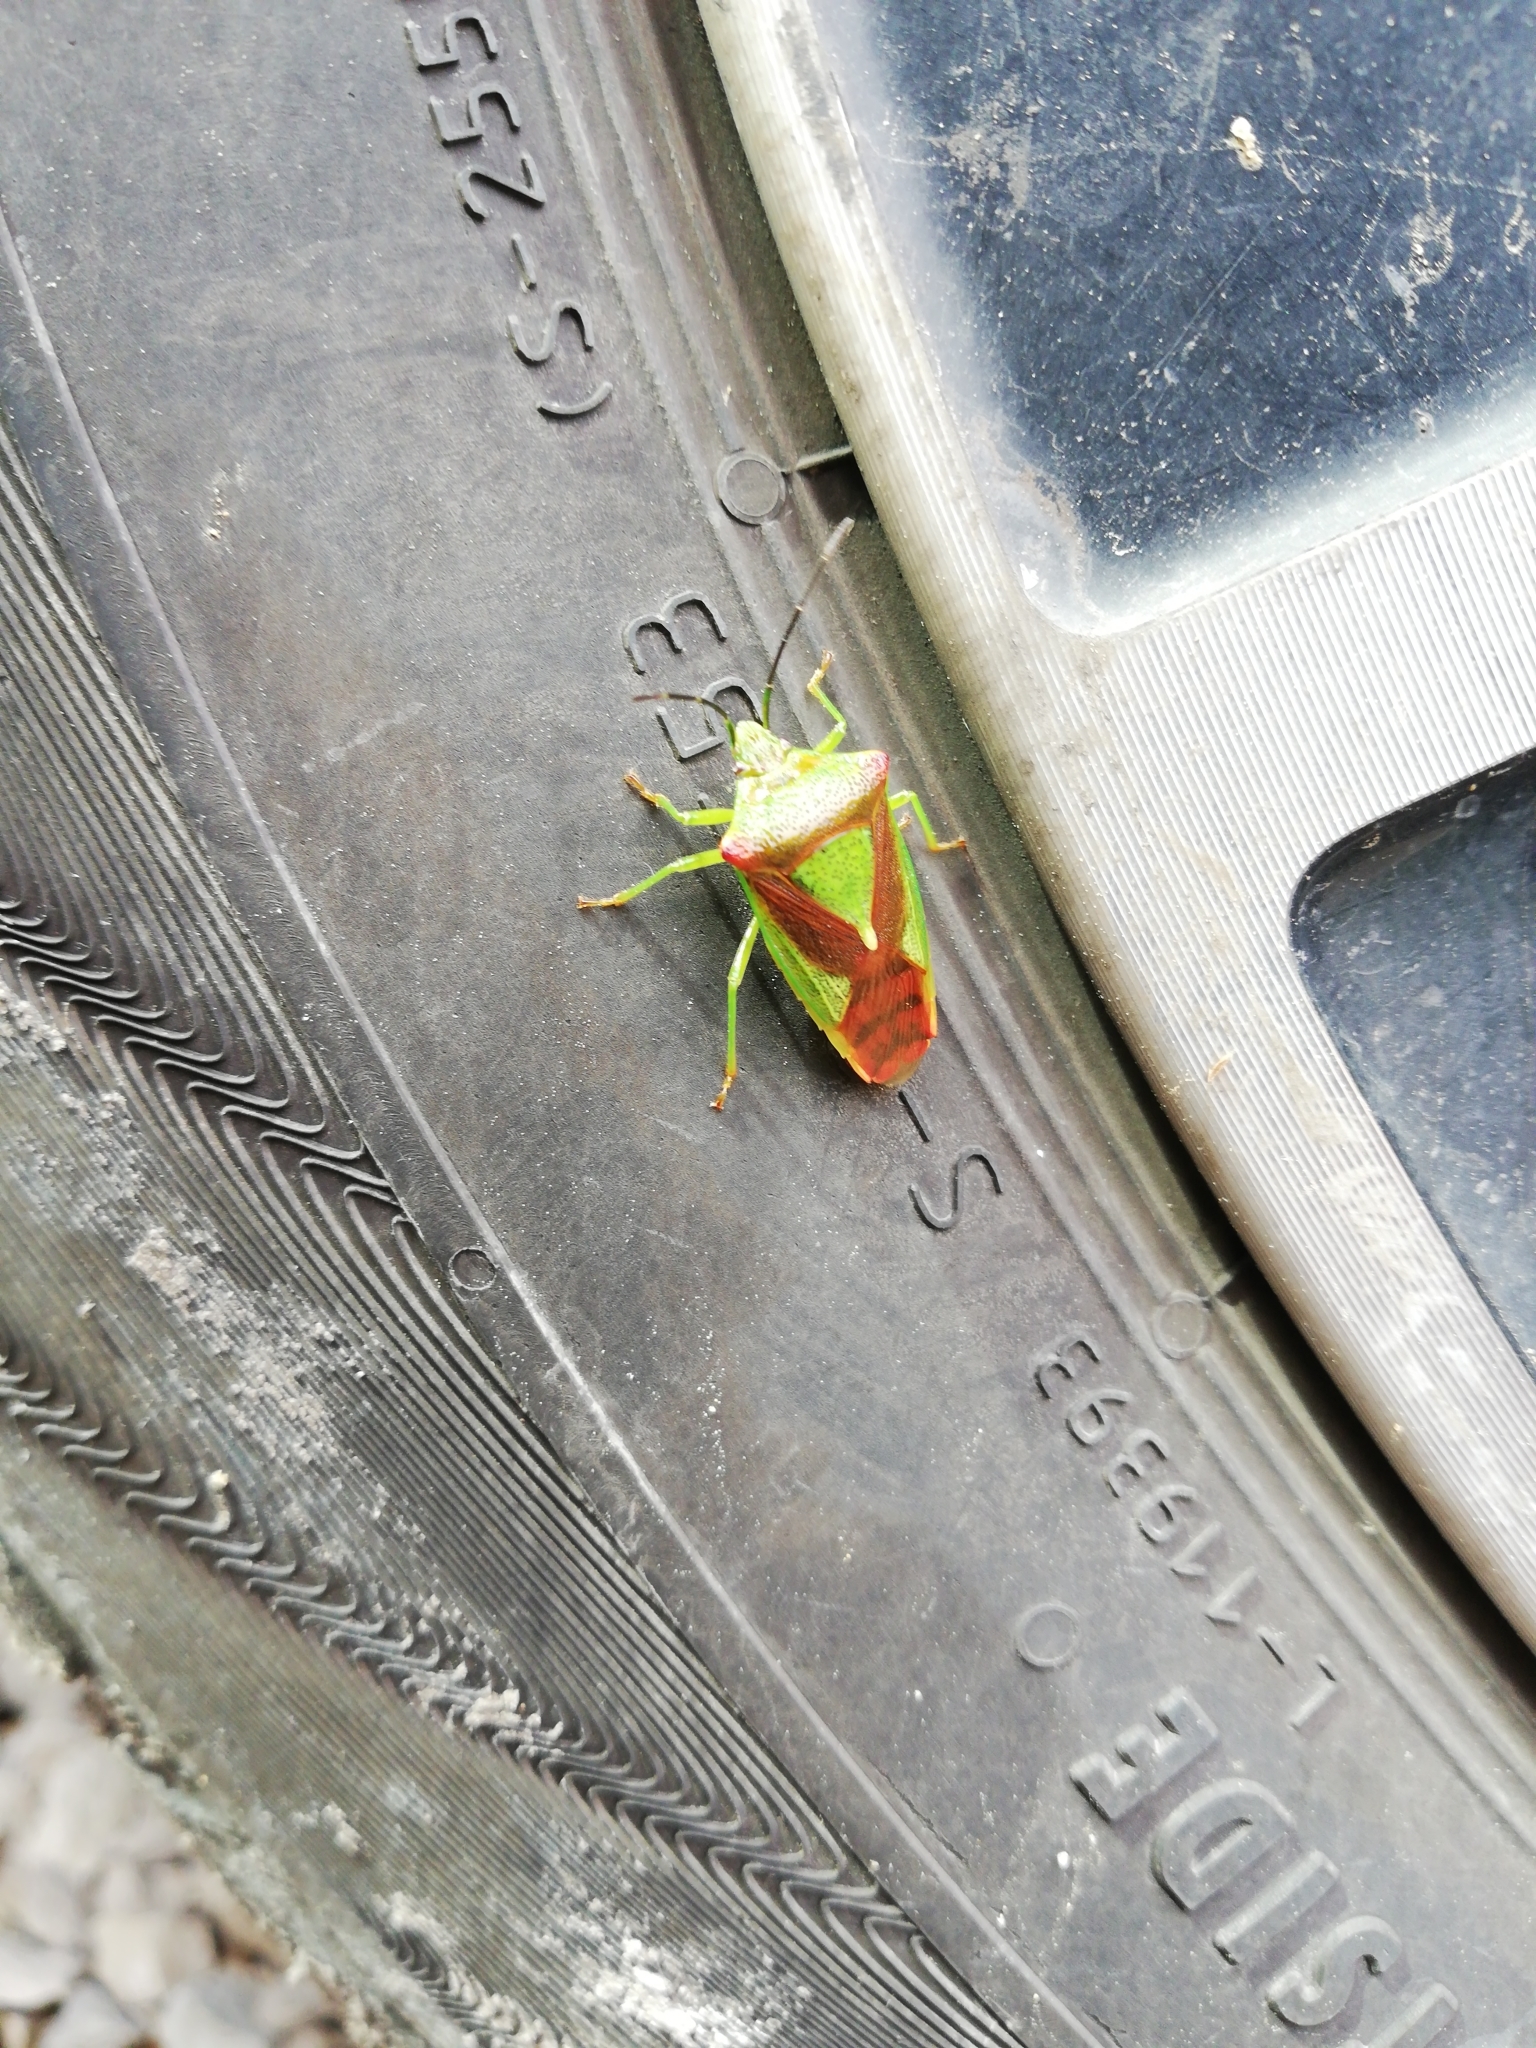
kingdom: Animalia
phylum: Arthropoda
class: Insecta
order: Hemiptera
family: Acanthosomatidae
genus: Acanthosoma
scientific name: Acanthosoma haemorrhoidale
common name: Hawthorn shieldbug
